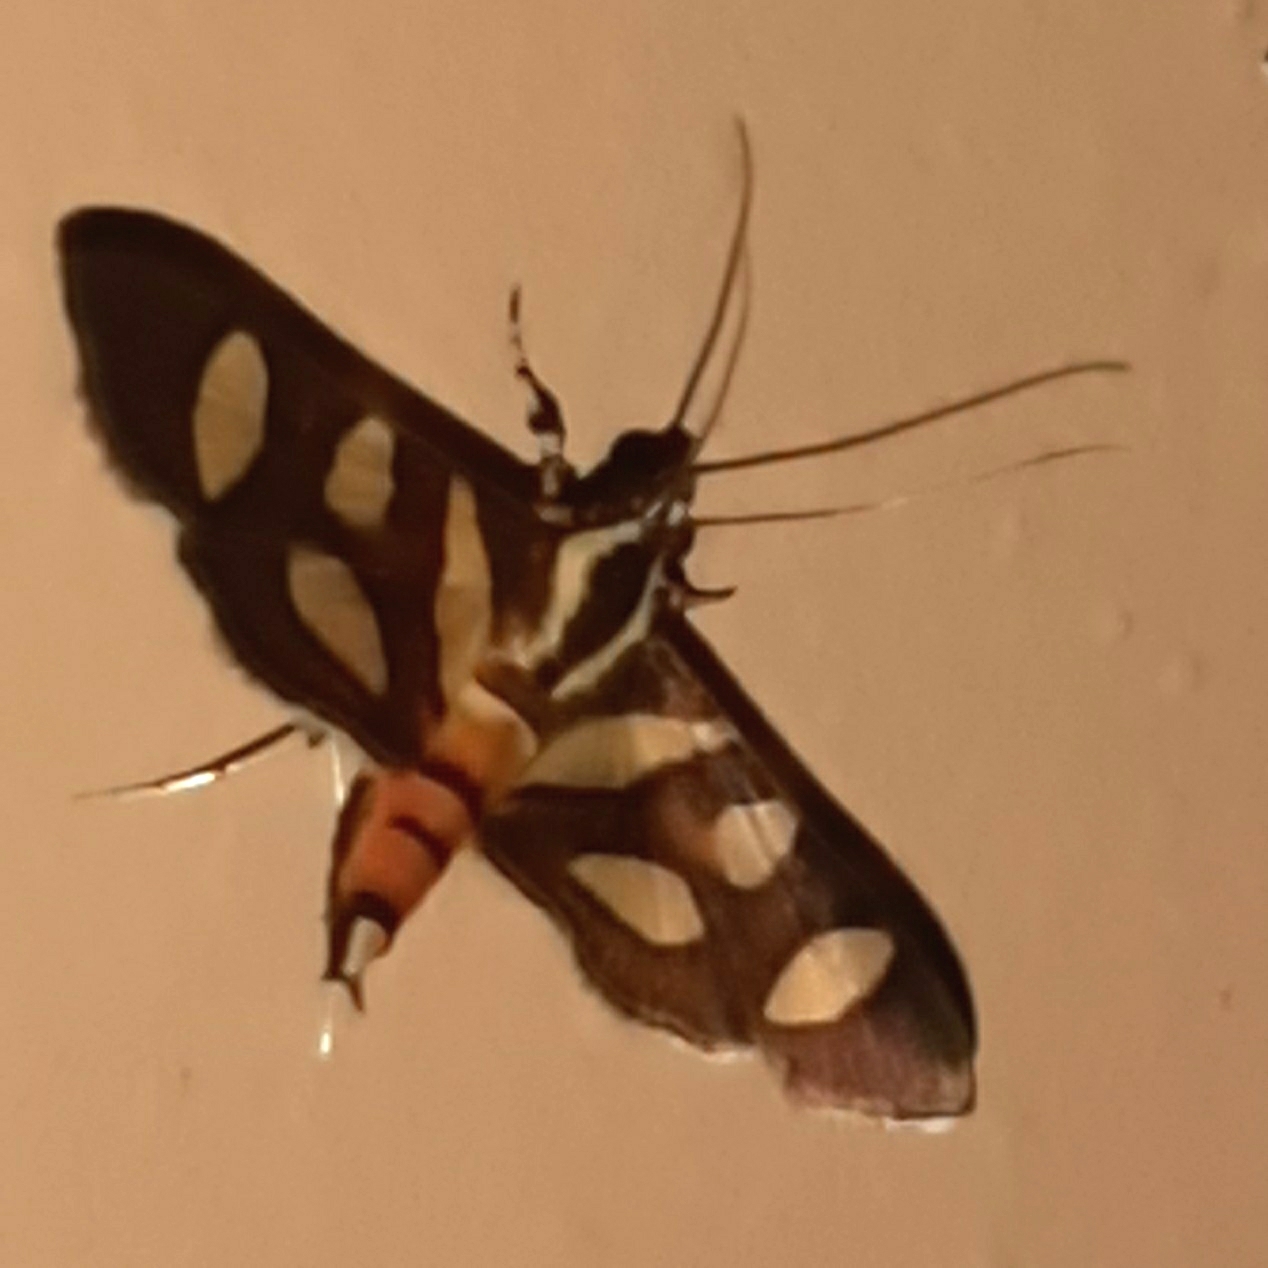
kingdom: Animalia
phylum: Arthropoda
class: Insecta
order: Lepidoptera
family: Crambidae
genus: Syngamia
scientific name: Syngamia florella
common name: Orange-spotted flower moth
